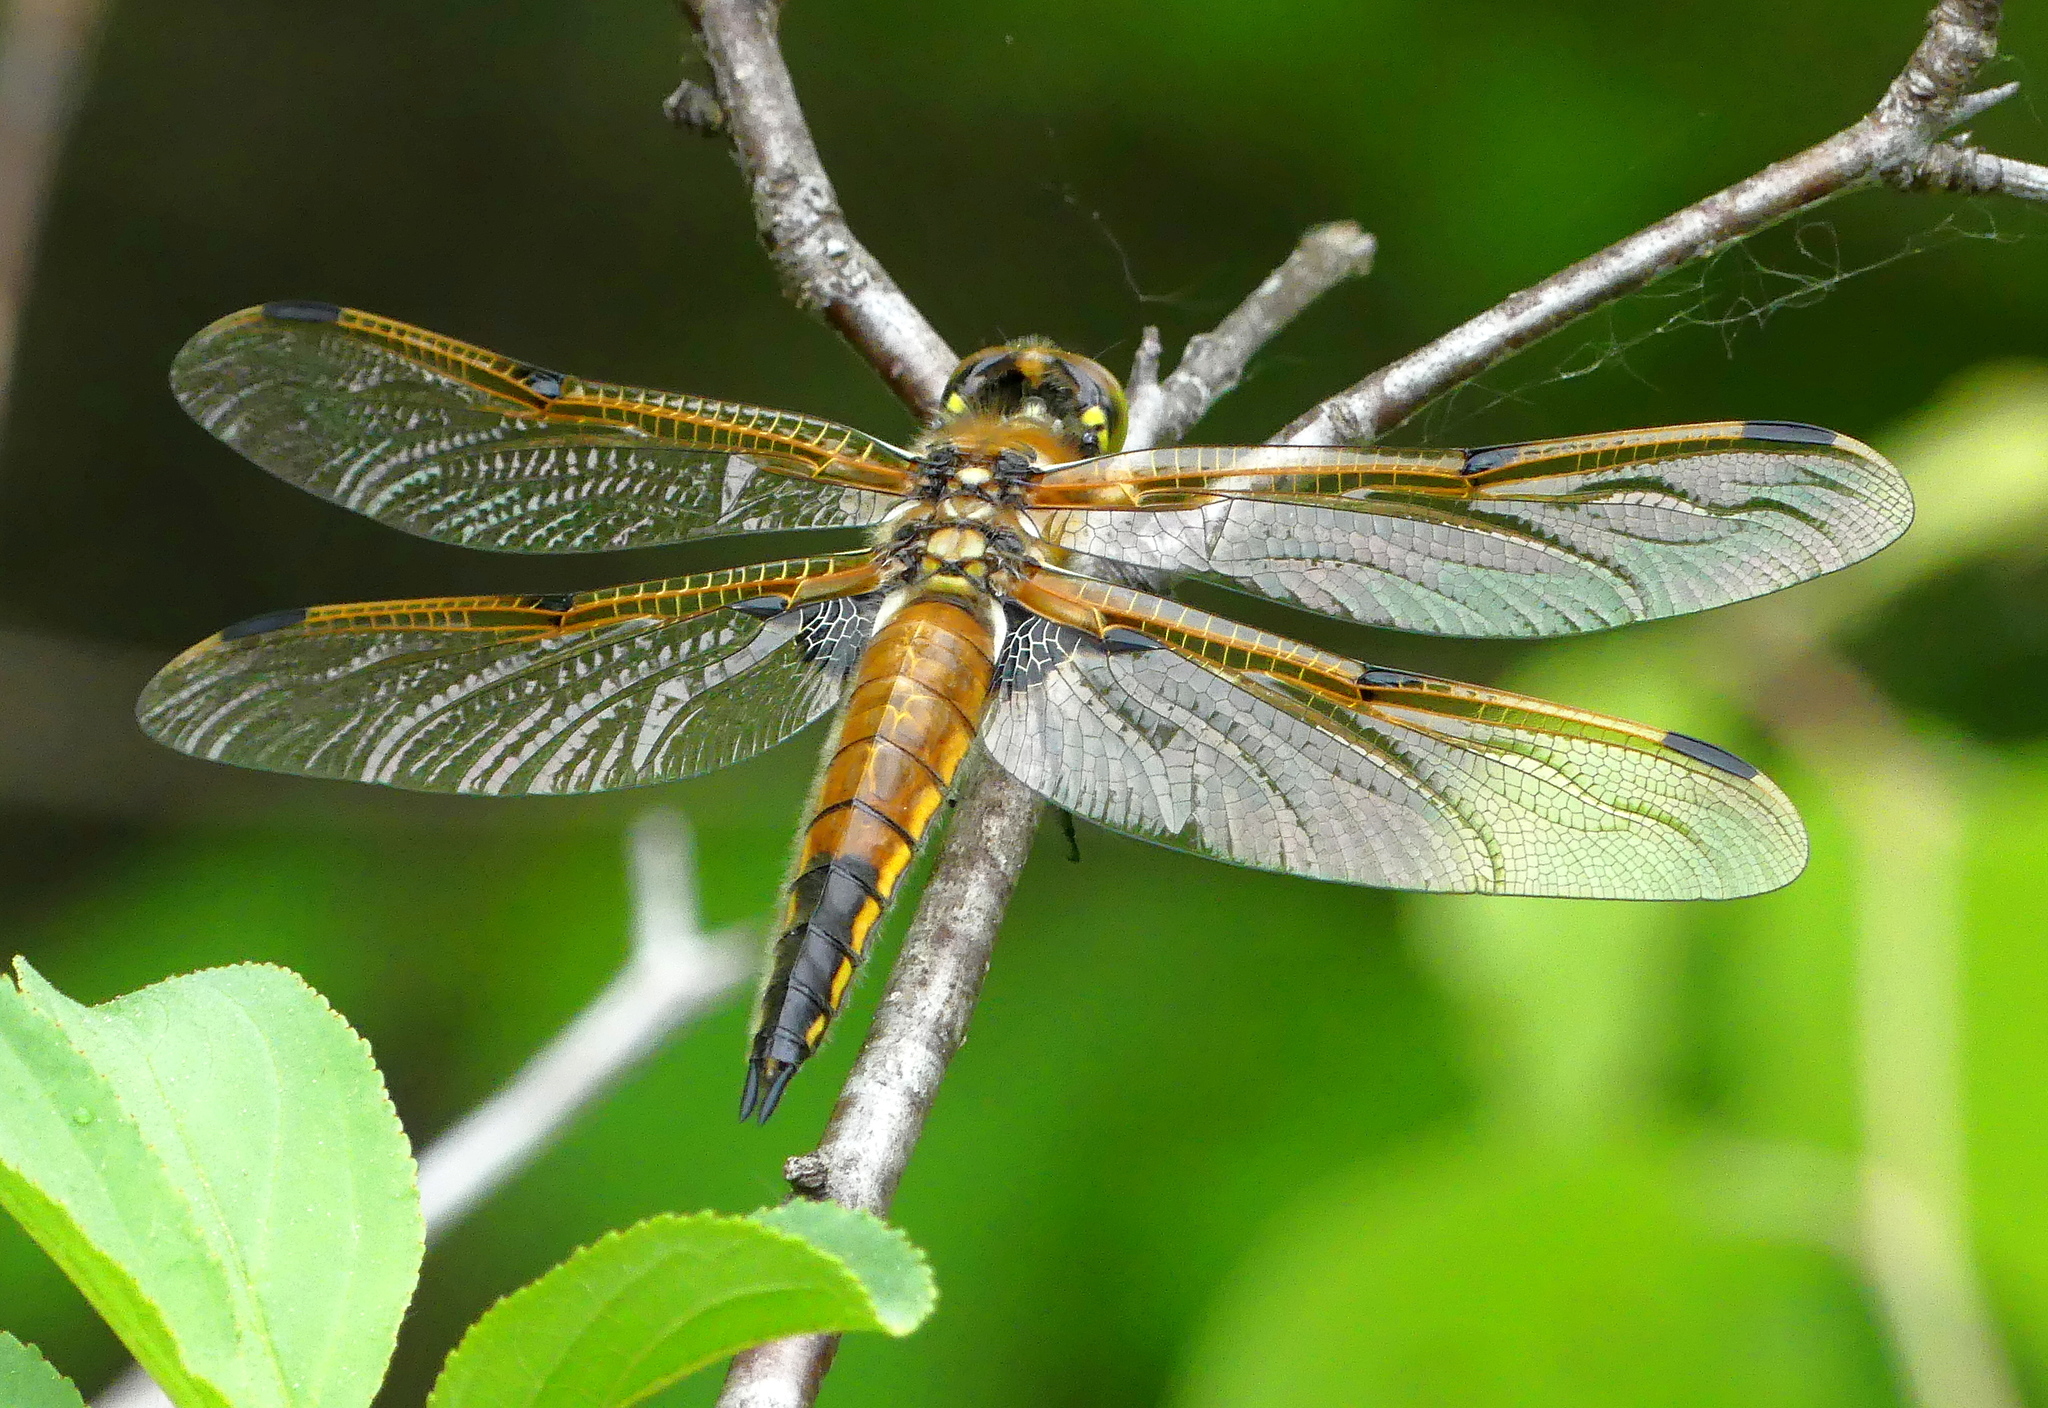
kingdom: Animalia
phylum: Arthropoda
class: Insecta
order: Odonata
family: Libellulidae
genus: Libellula
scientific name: Libellula quadrimaculata
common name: Four-spotted chaser
